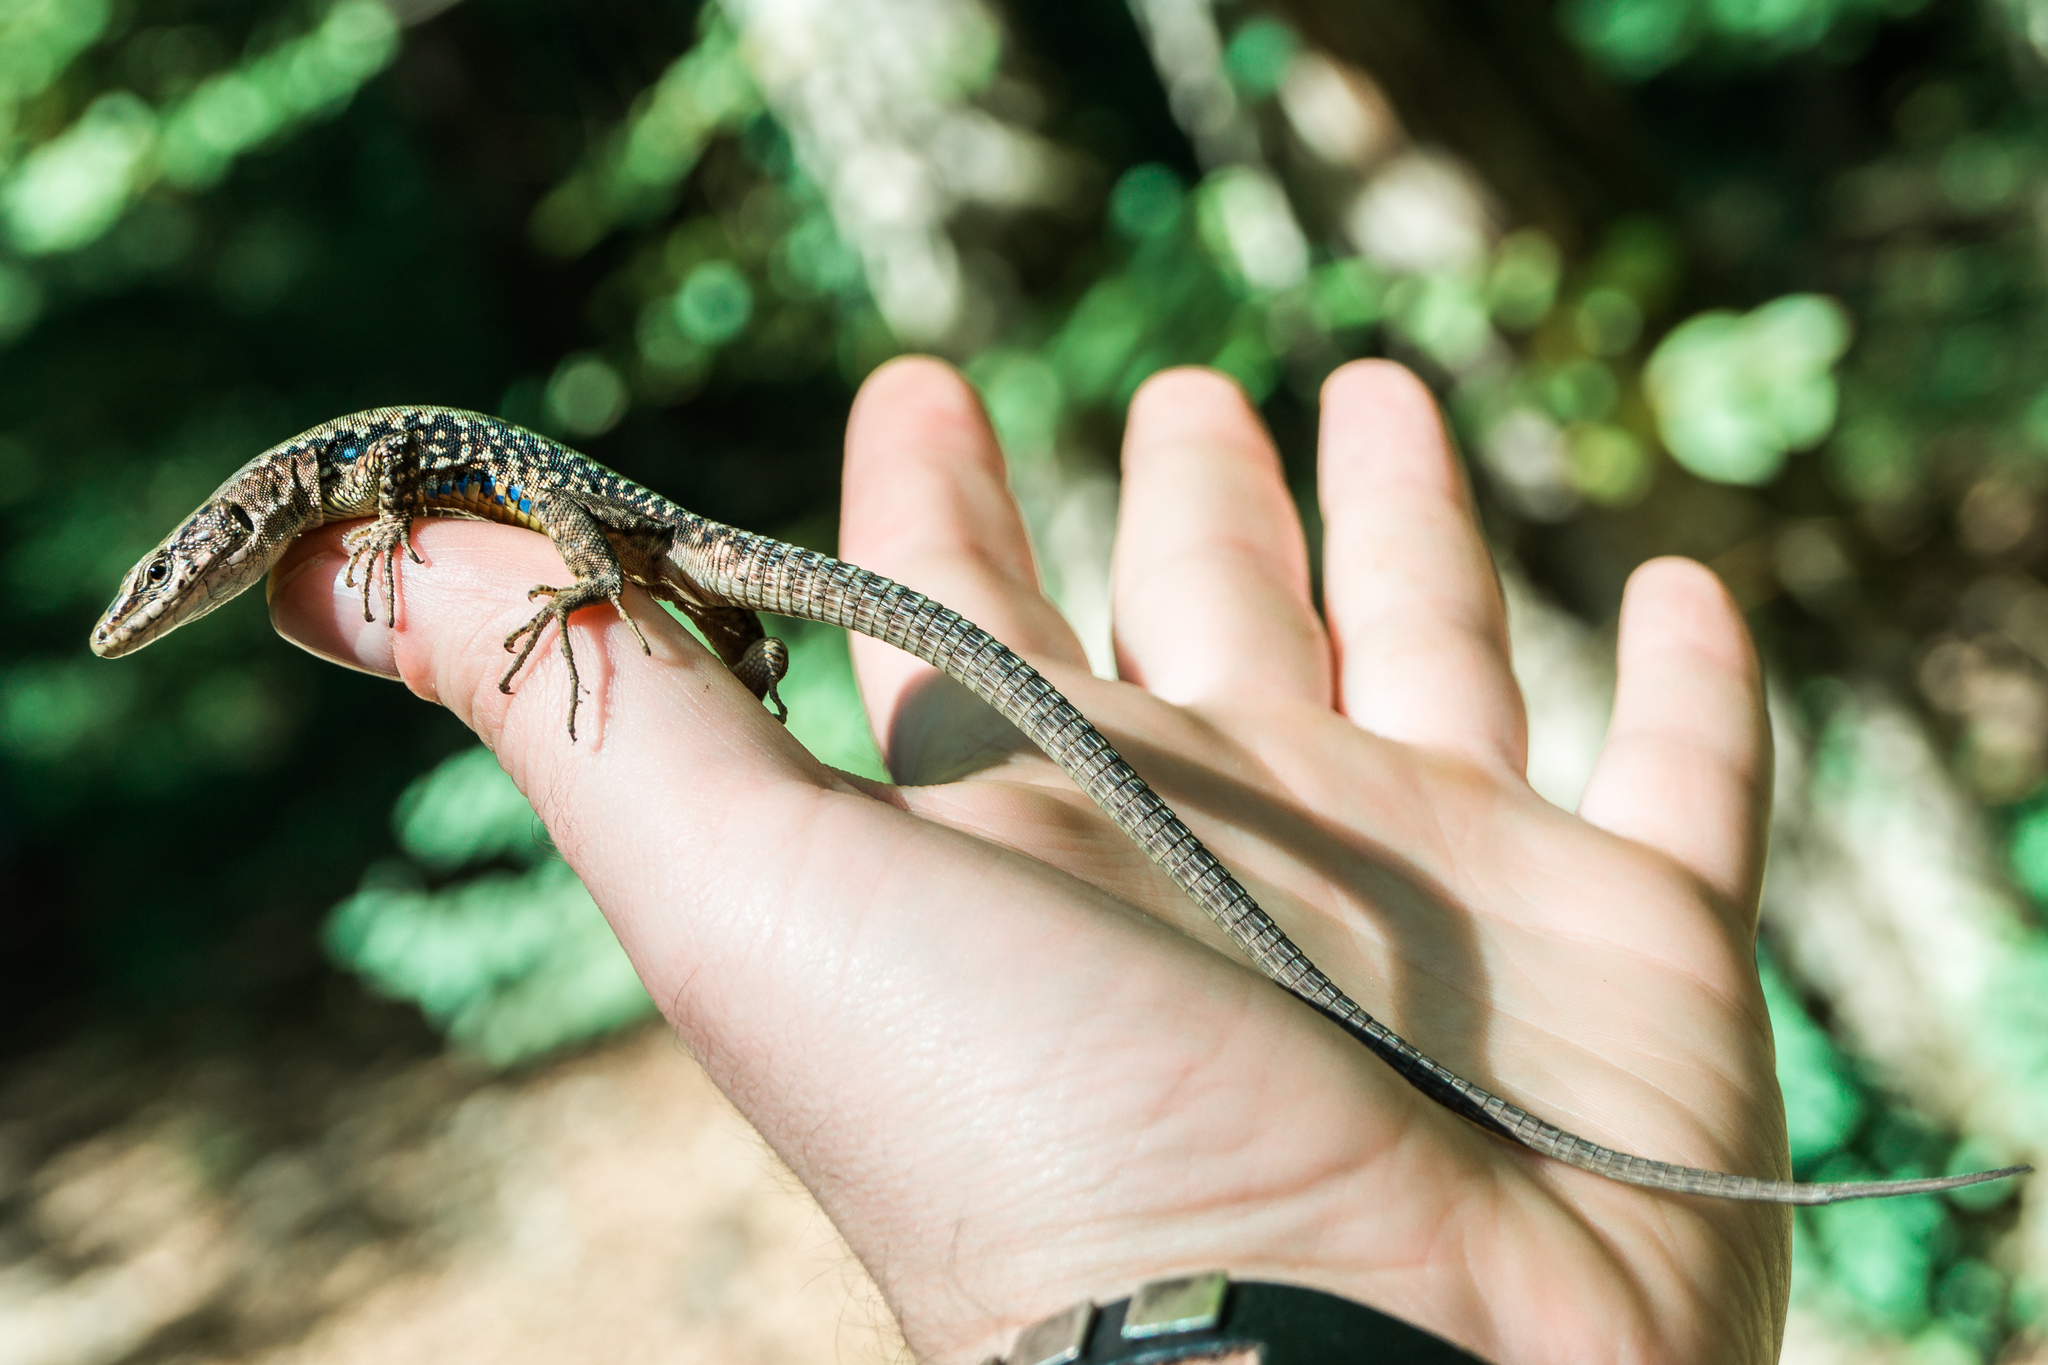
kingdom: Animalia
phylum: Chordata
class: Squamata
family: Lacertidae
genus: Darevskia
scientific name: Darevskia brauneri
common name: Brauner's rock lizard
